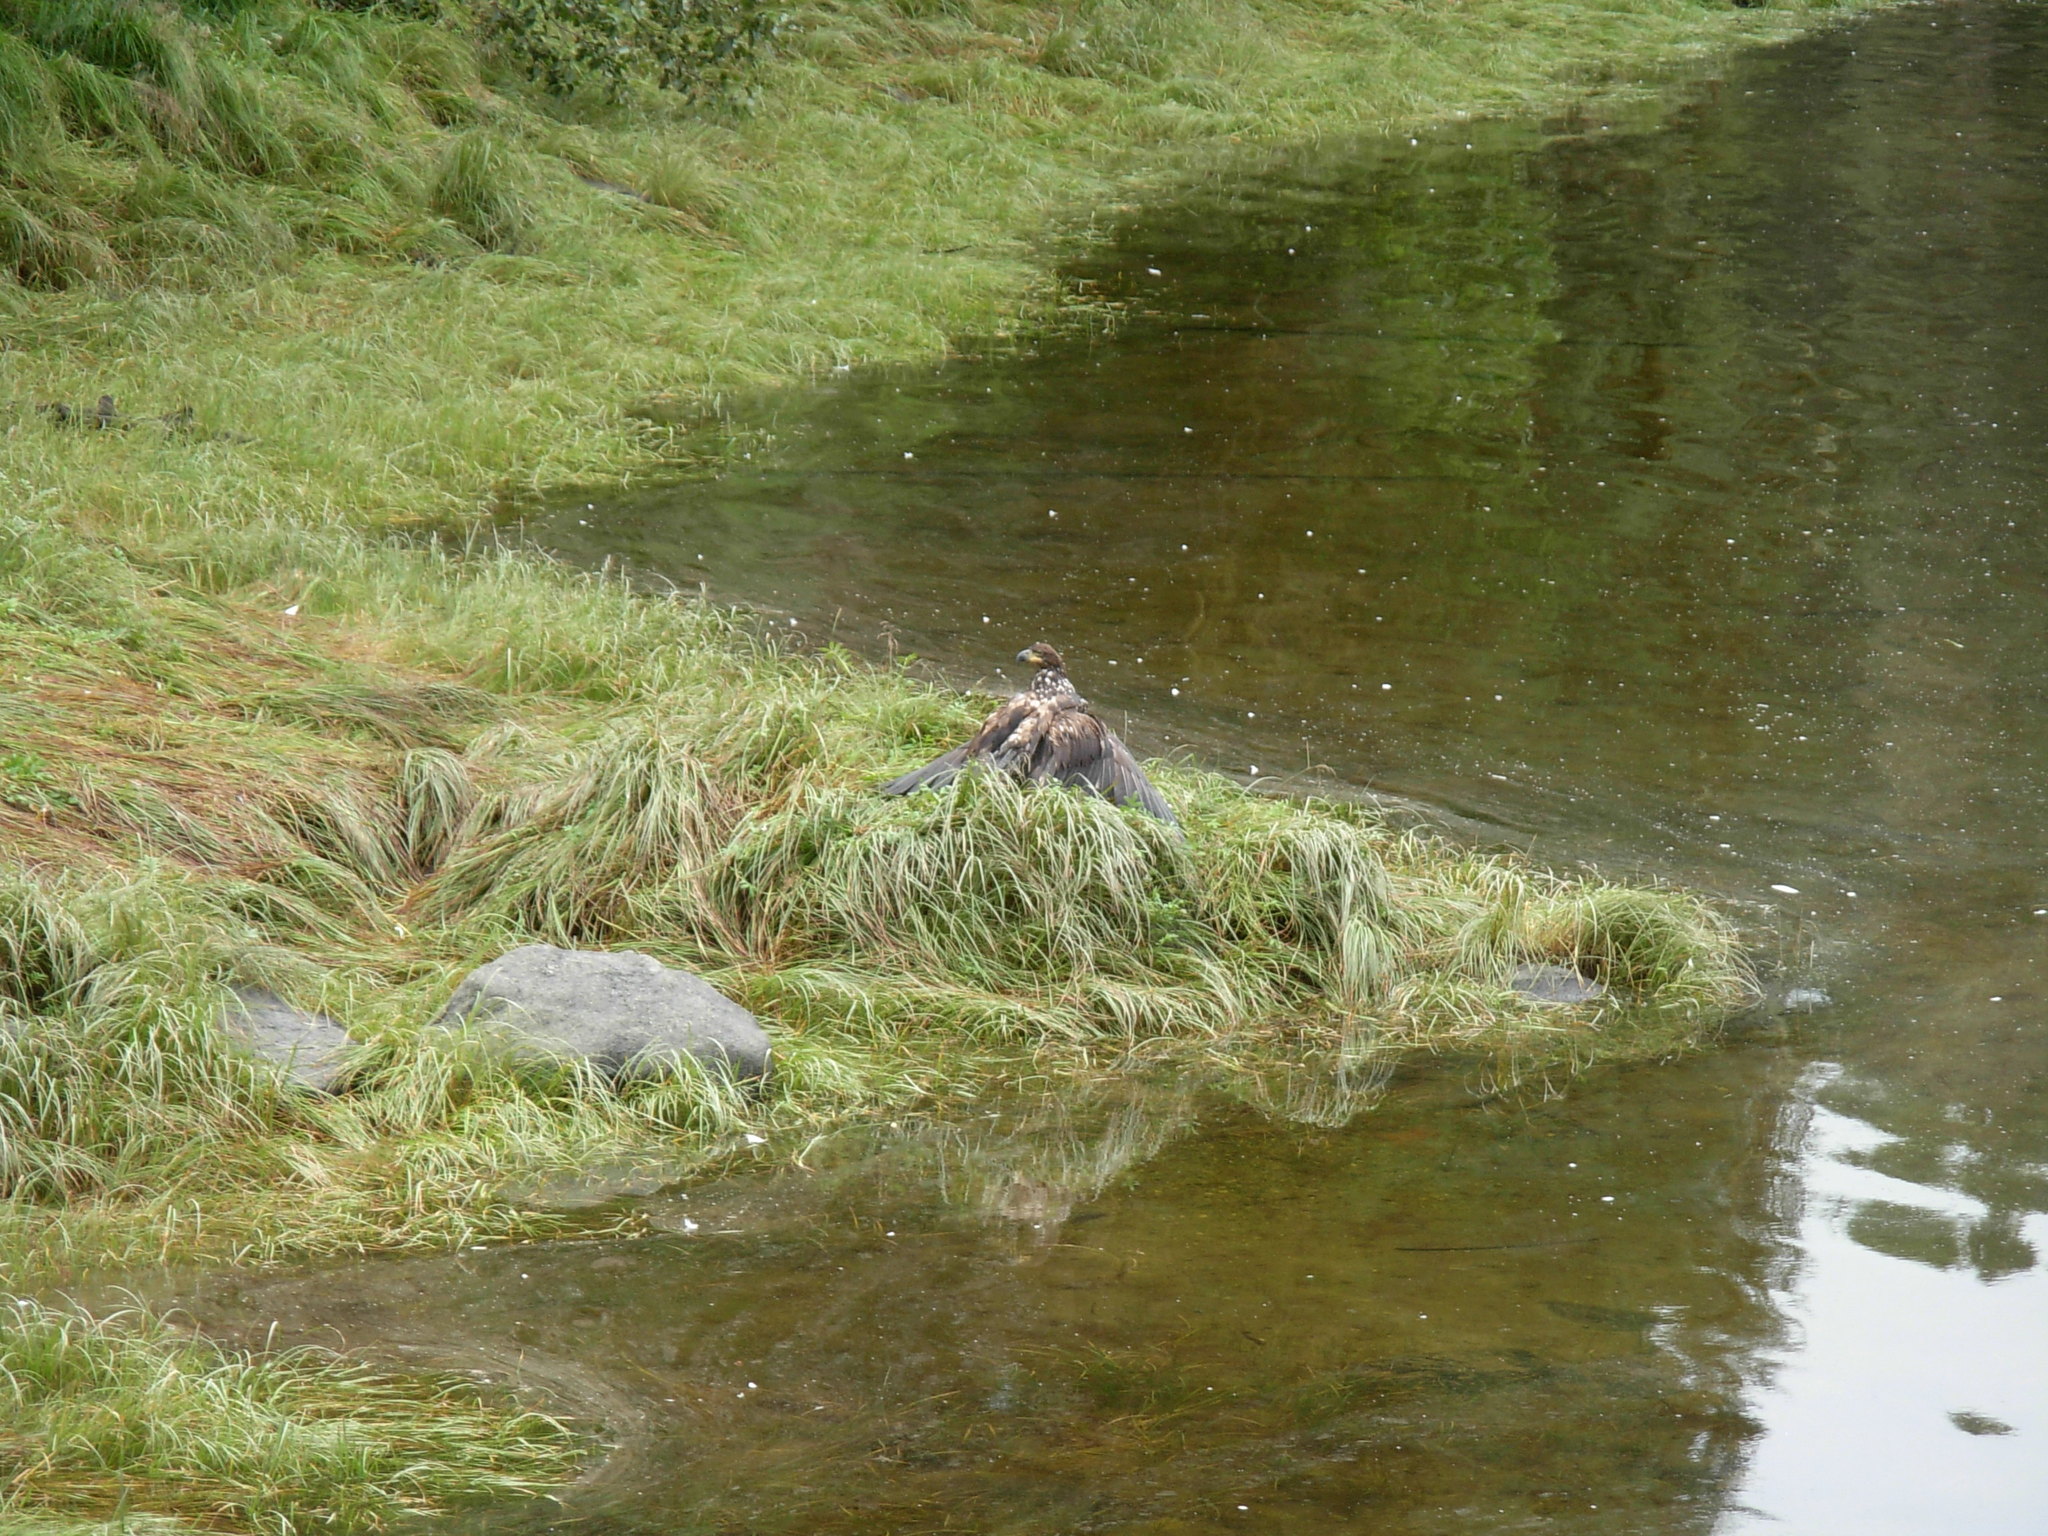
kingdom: Animalia
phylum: Chordata
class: Aves
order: Accipitriformes
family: Accipitridae
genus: Haliaeetus
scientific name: Haliaeetus leucocephalus
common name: Bald eagle
